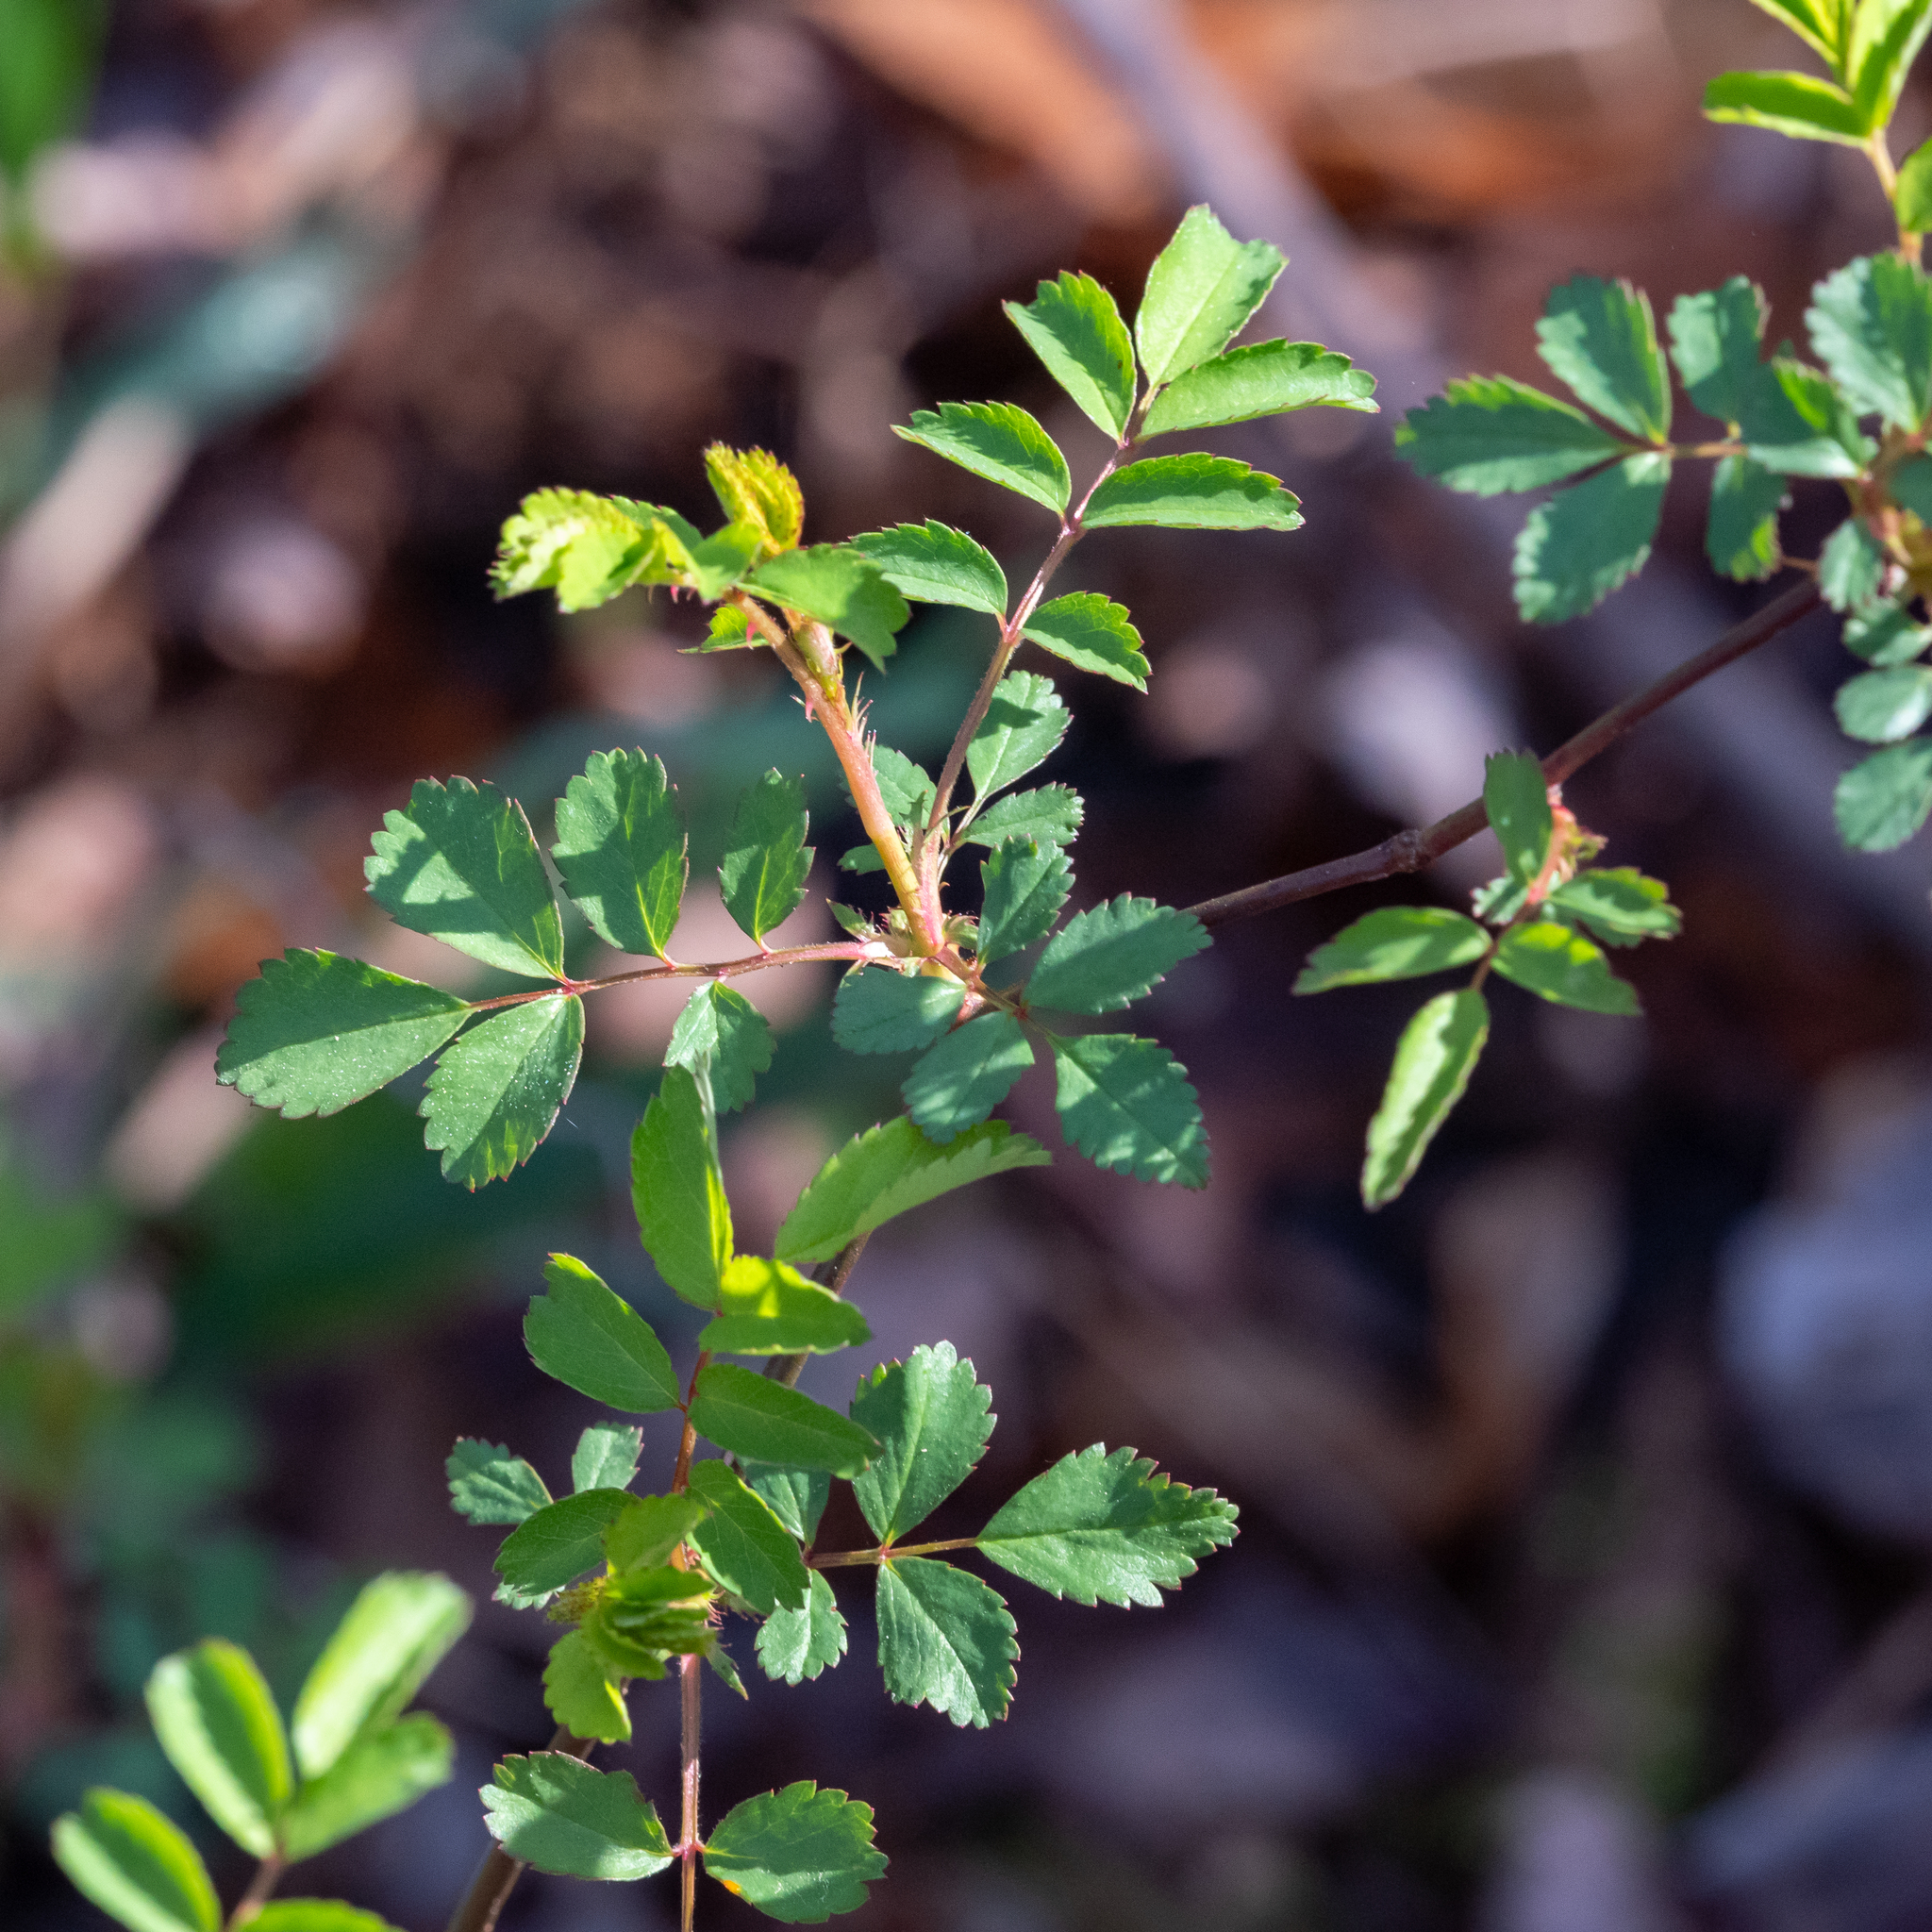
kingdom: Plantae
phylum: Tracheophyta
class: Magnoliopsida
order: Rosales
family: Rosaceae
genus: Rosa
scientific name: Rosa multiflora
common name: Multiflora rose
